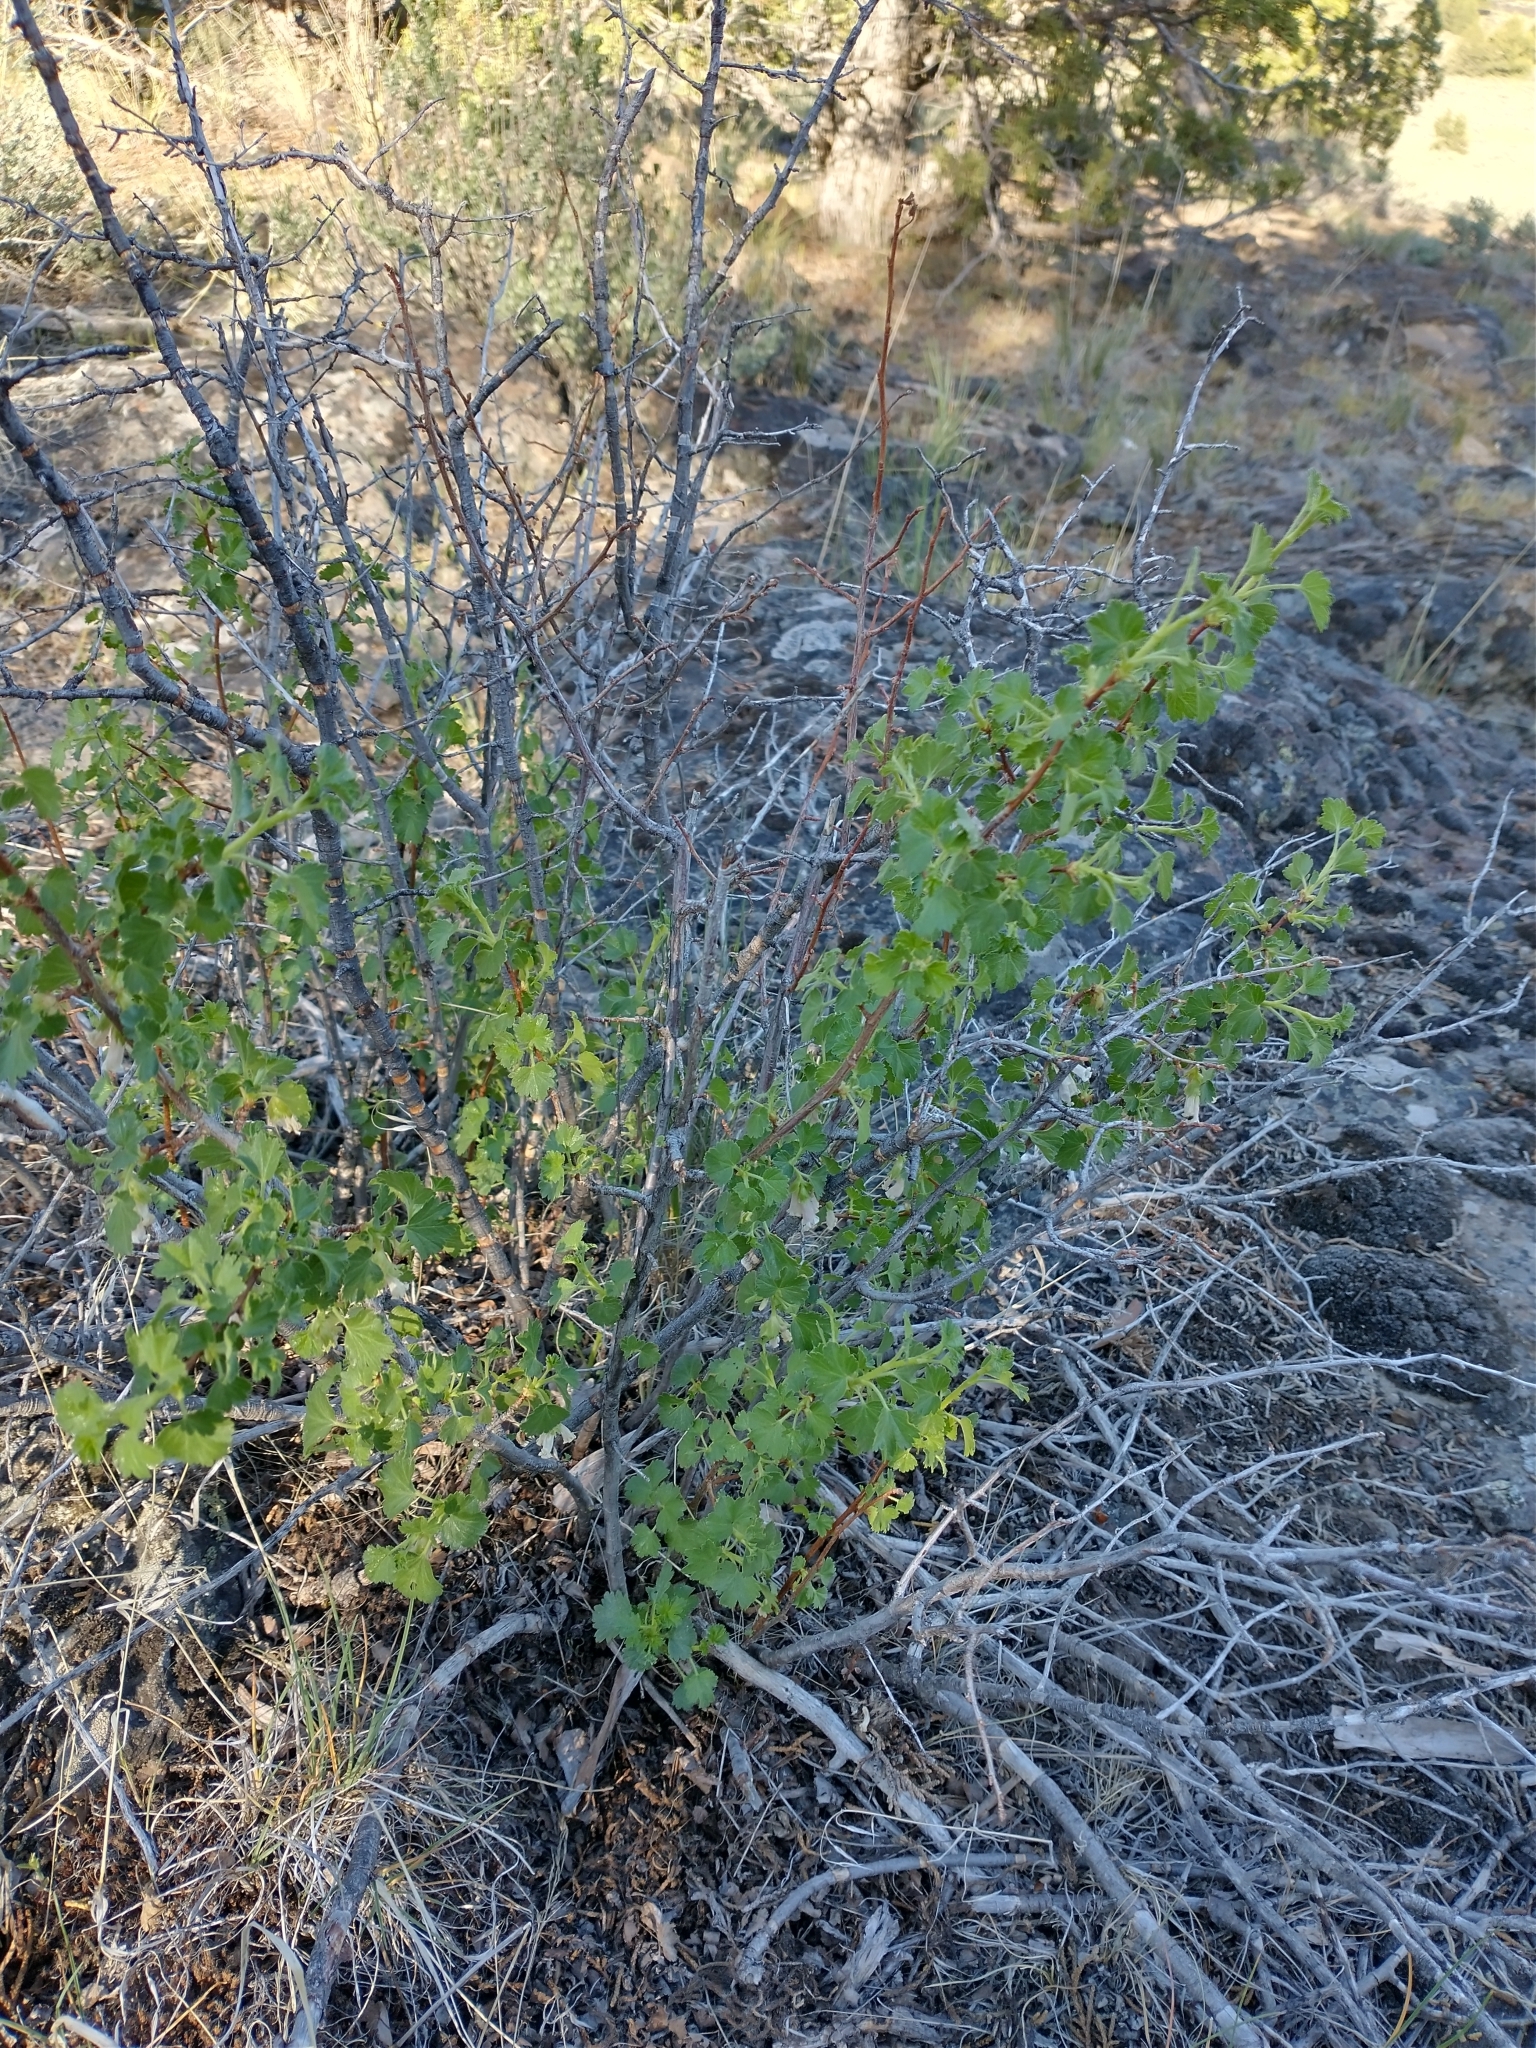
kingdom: Plantae
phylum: Tracheophyta
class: Magnoliopsida
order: Saxifragales
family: Grossulariaceae
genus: Ribes
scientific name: Ribes cereum
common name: Wax currant
